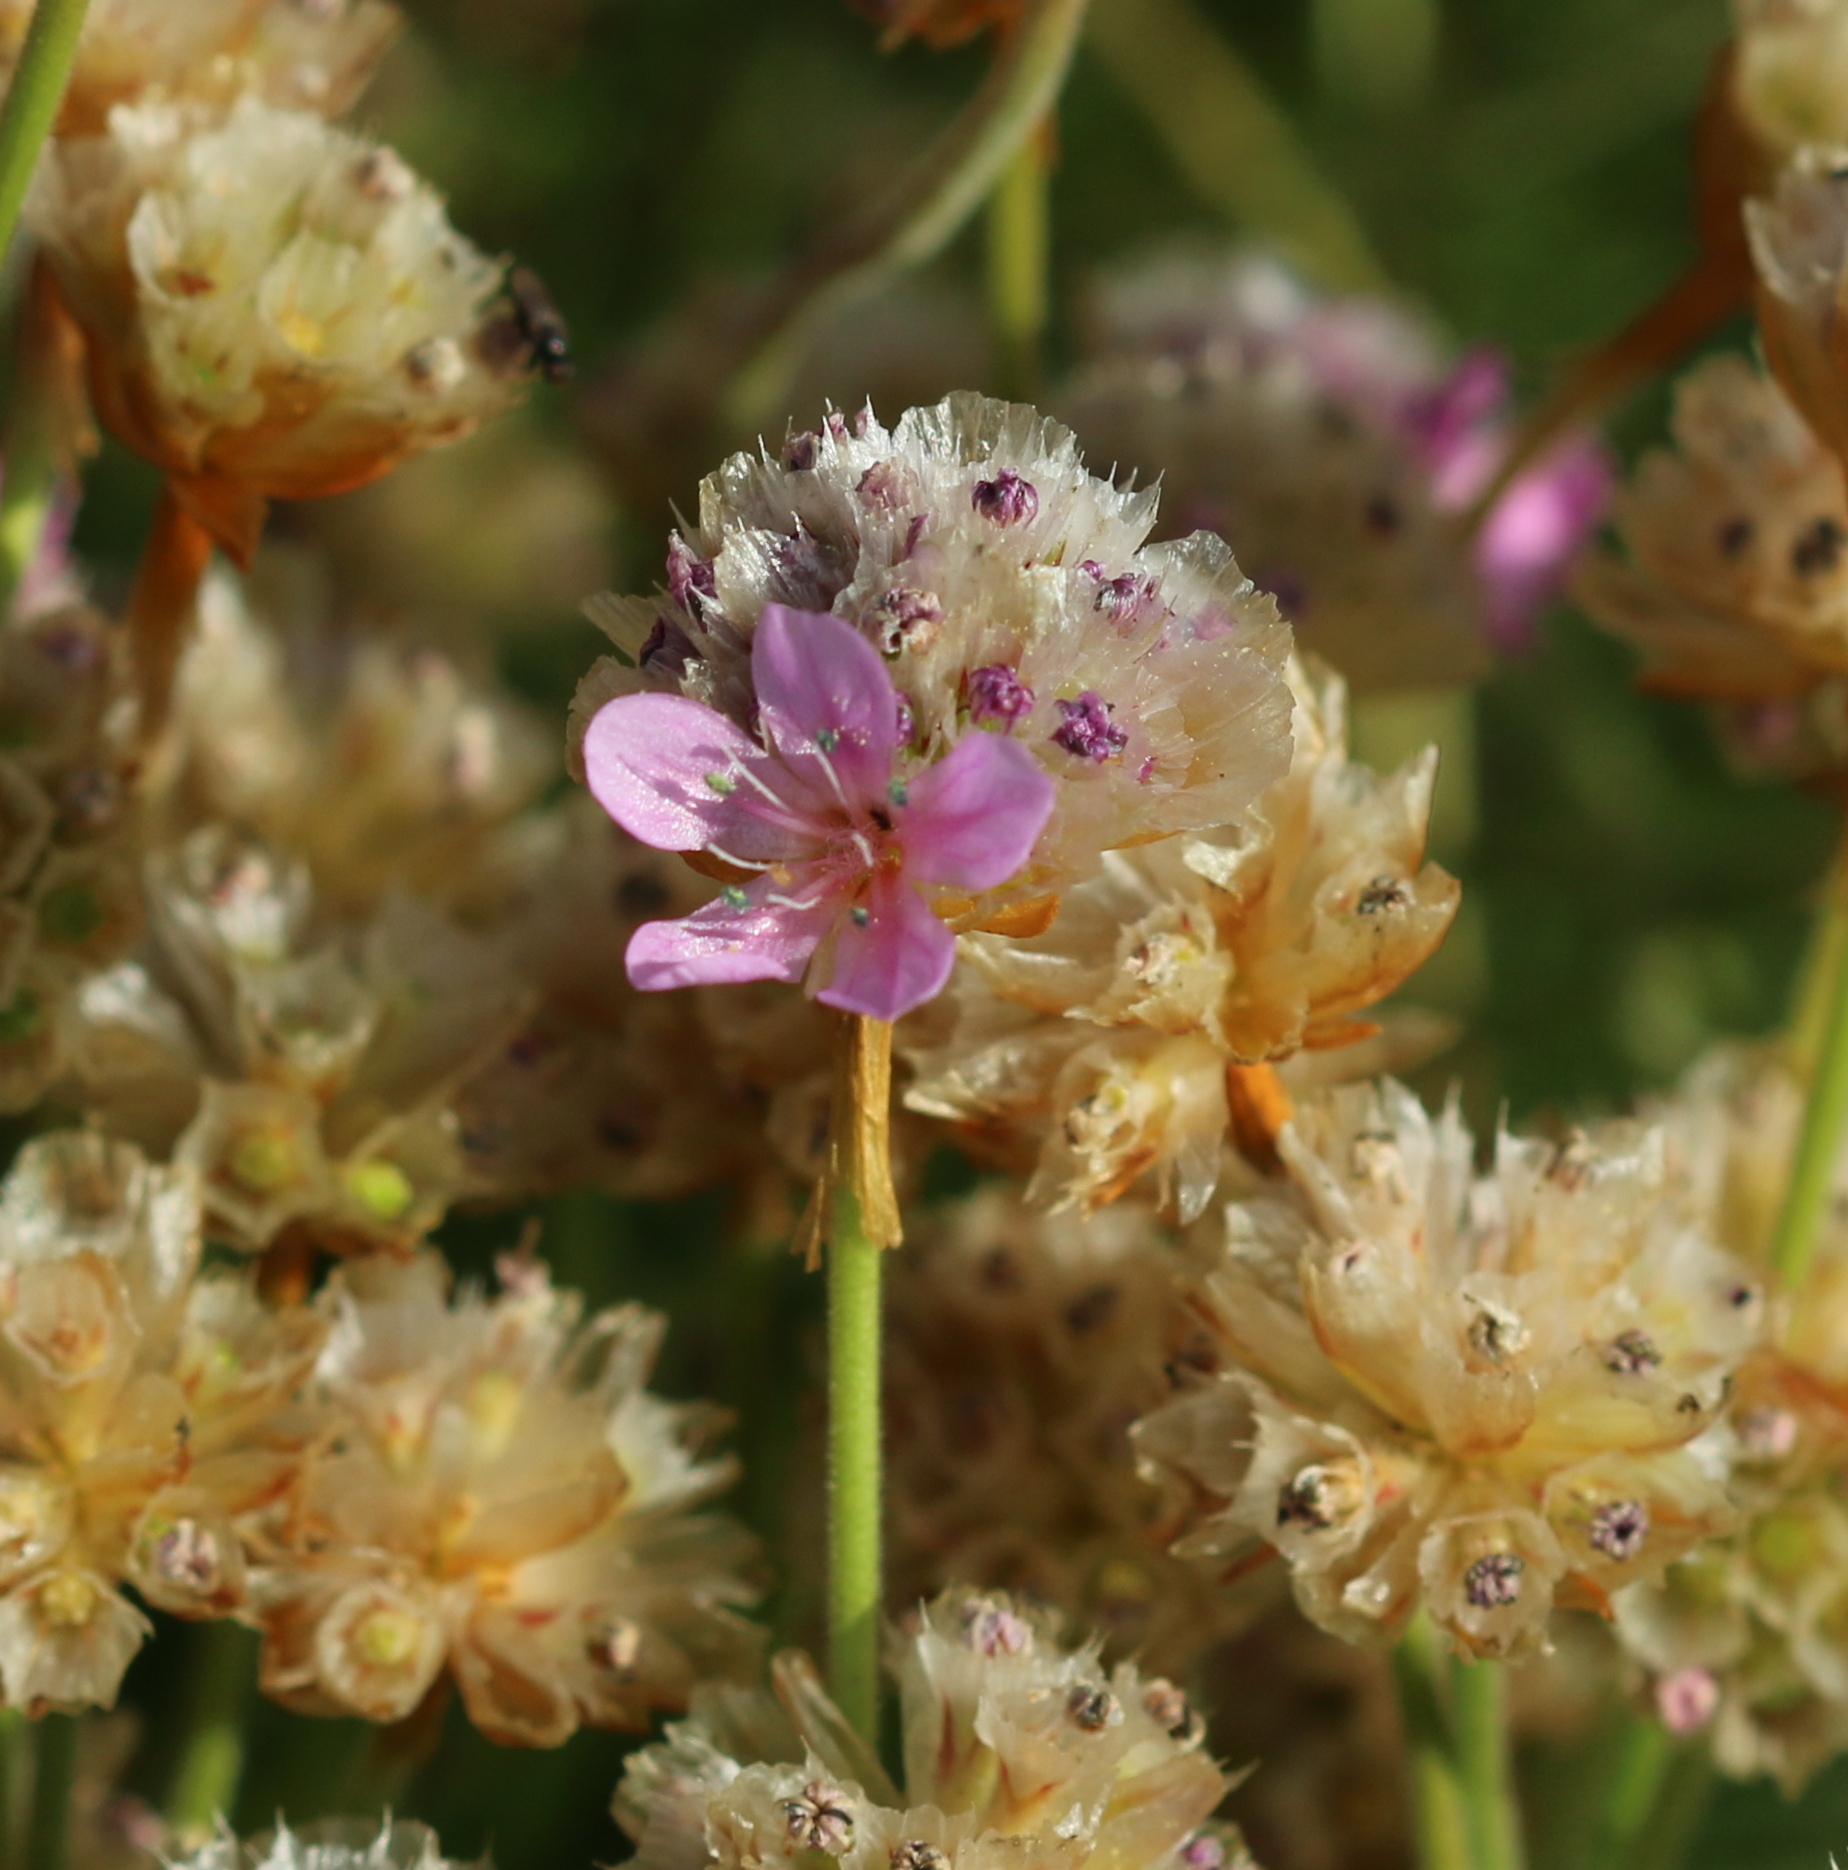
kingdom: Plantae
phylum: Tracheophyta
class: Magnoliopsida
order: Caryophyllales
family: Plumbaginaceae
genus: Armeria
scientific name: Armeria maritima
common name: Thrift
